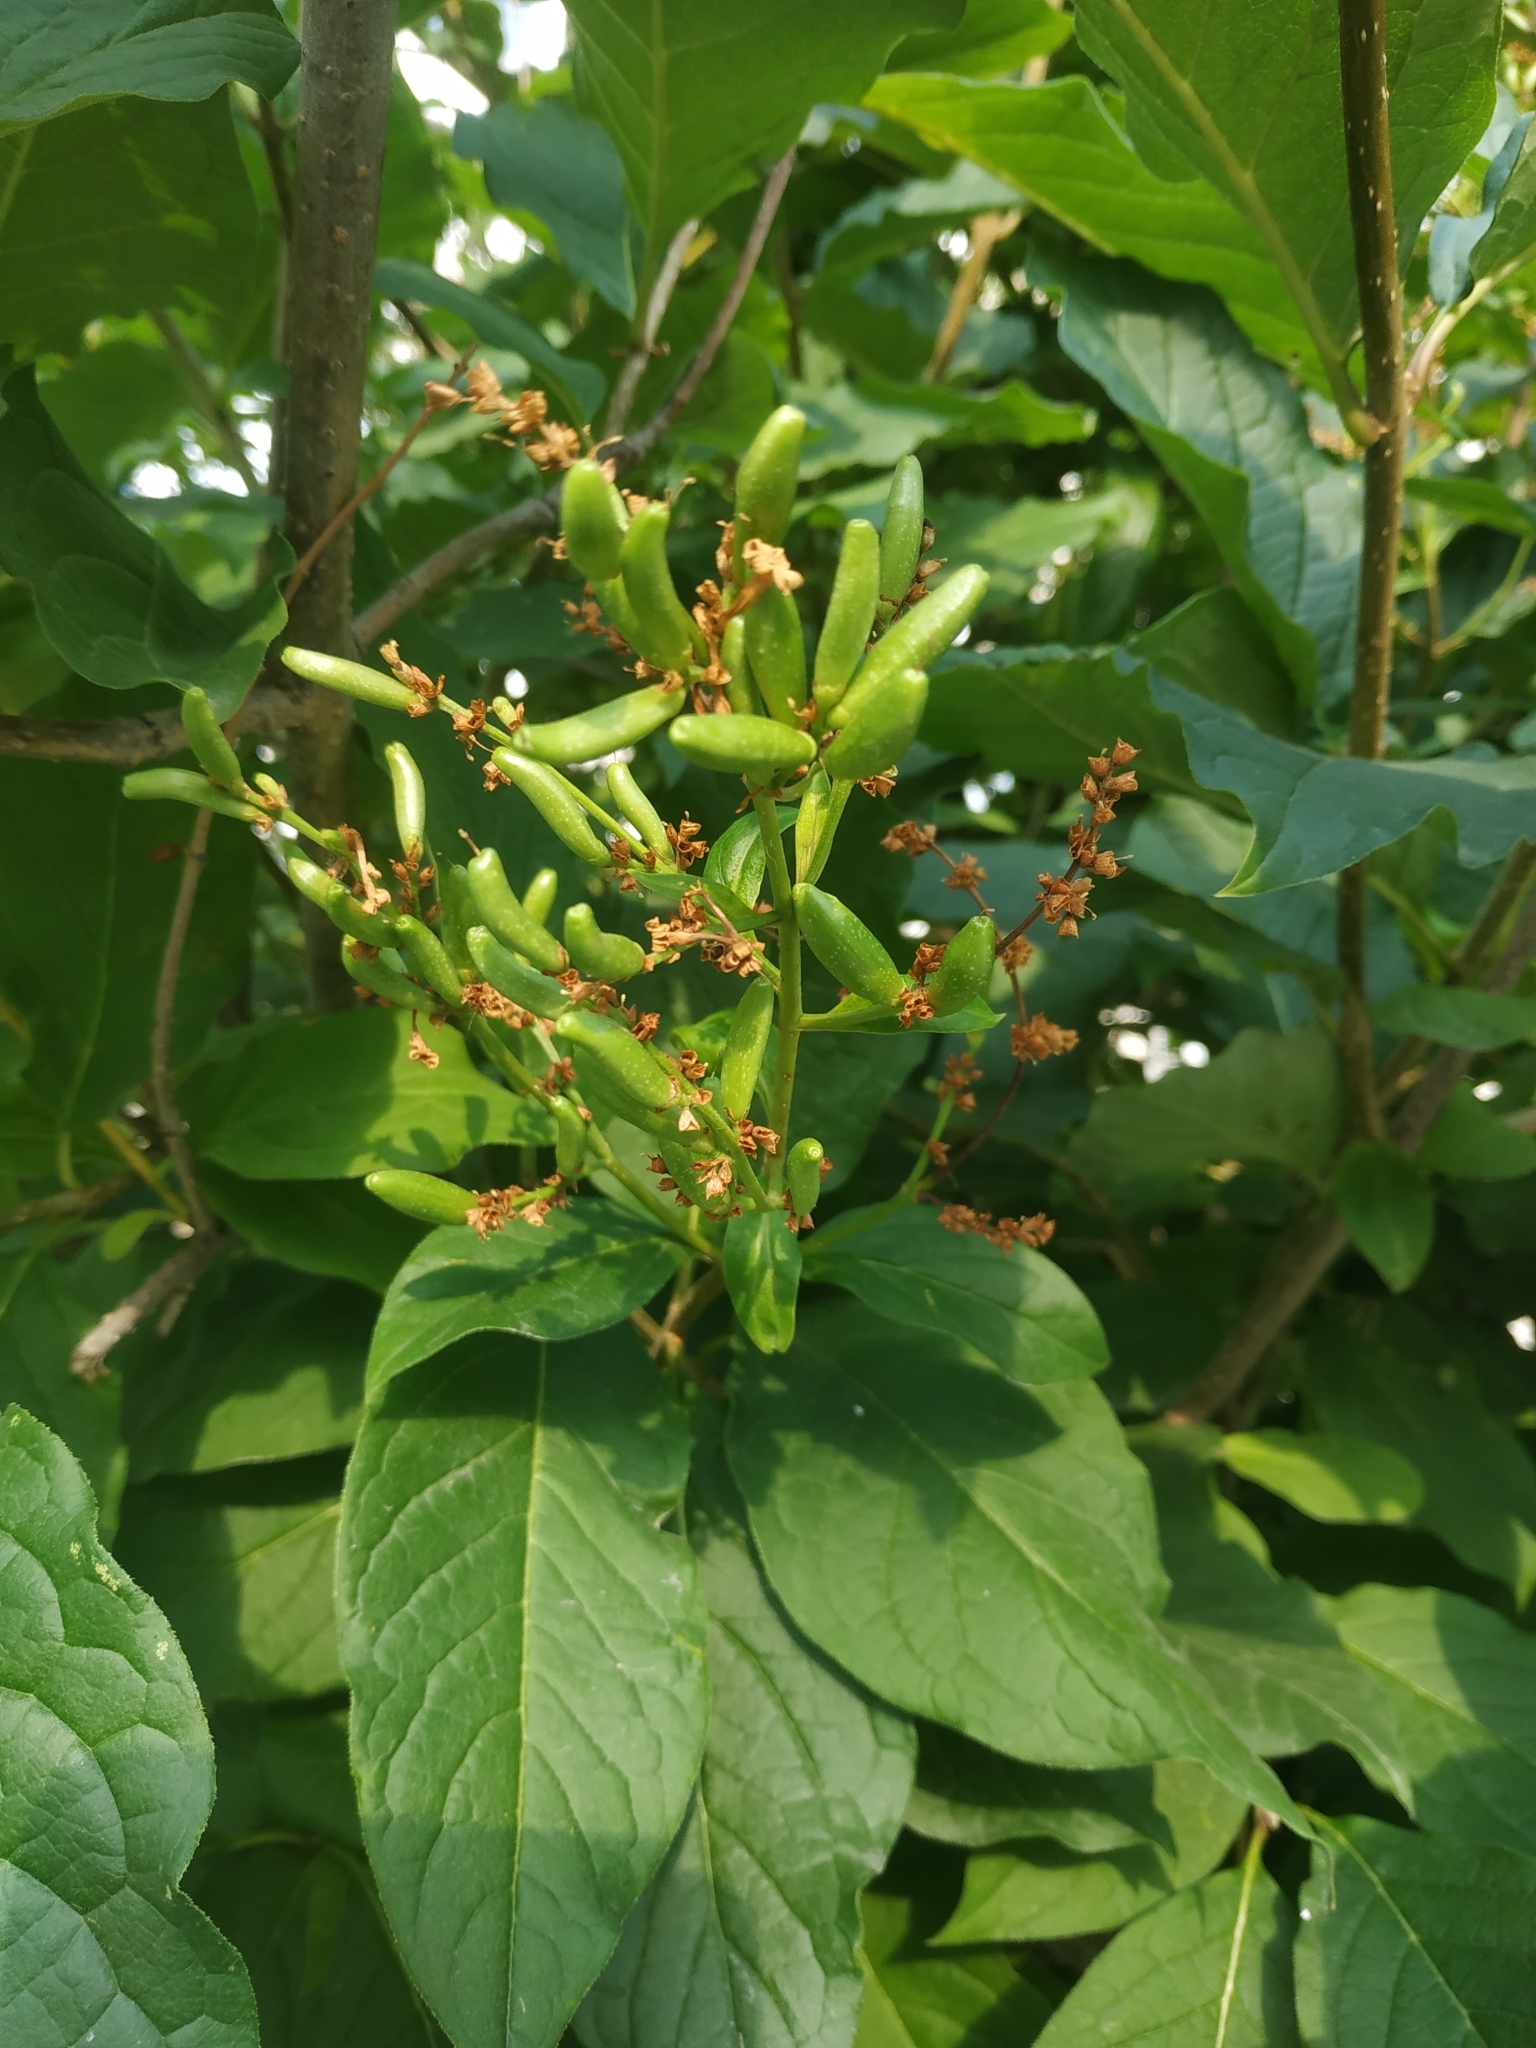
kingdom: Plantae
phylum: Tracheophyta
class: Magnoliopsida
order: Lamiales
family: Oleaceae
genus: Syringa
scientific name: Syringa josikaea
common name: Hungarian lilac
